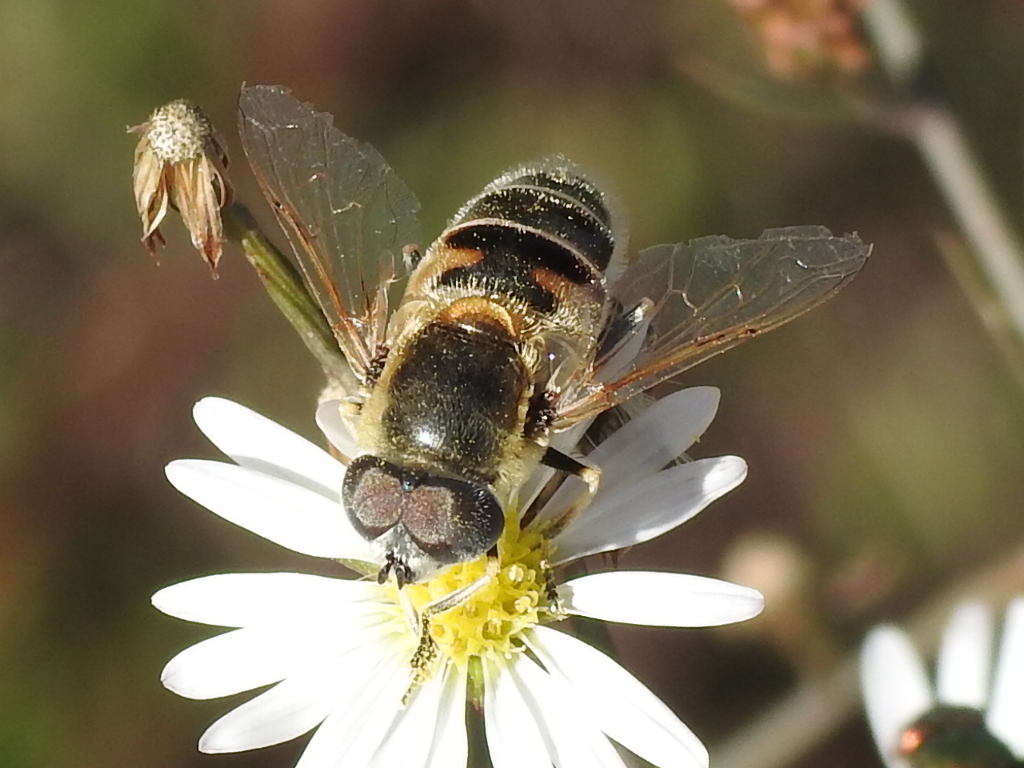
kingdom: Animalia
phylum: Arthropoda
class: Insecta
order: Diptera
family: Syrphidae
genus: Eristalis
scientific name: Eristalis stipator
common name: Yellow-shouldered drone fly
